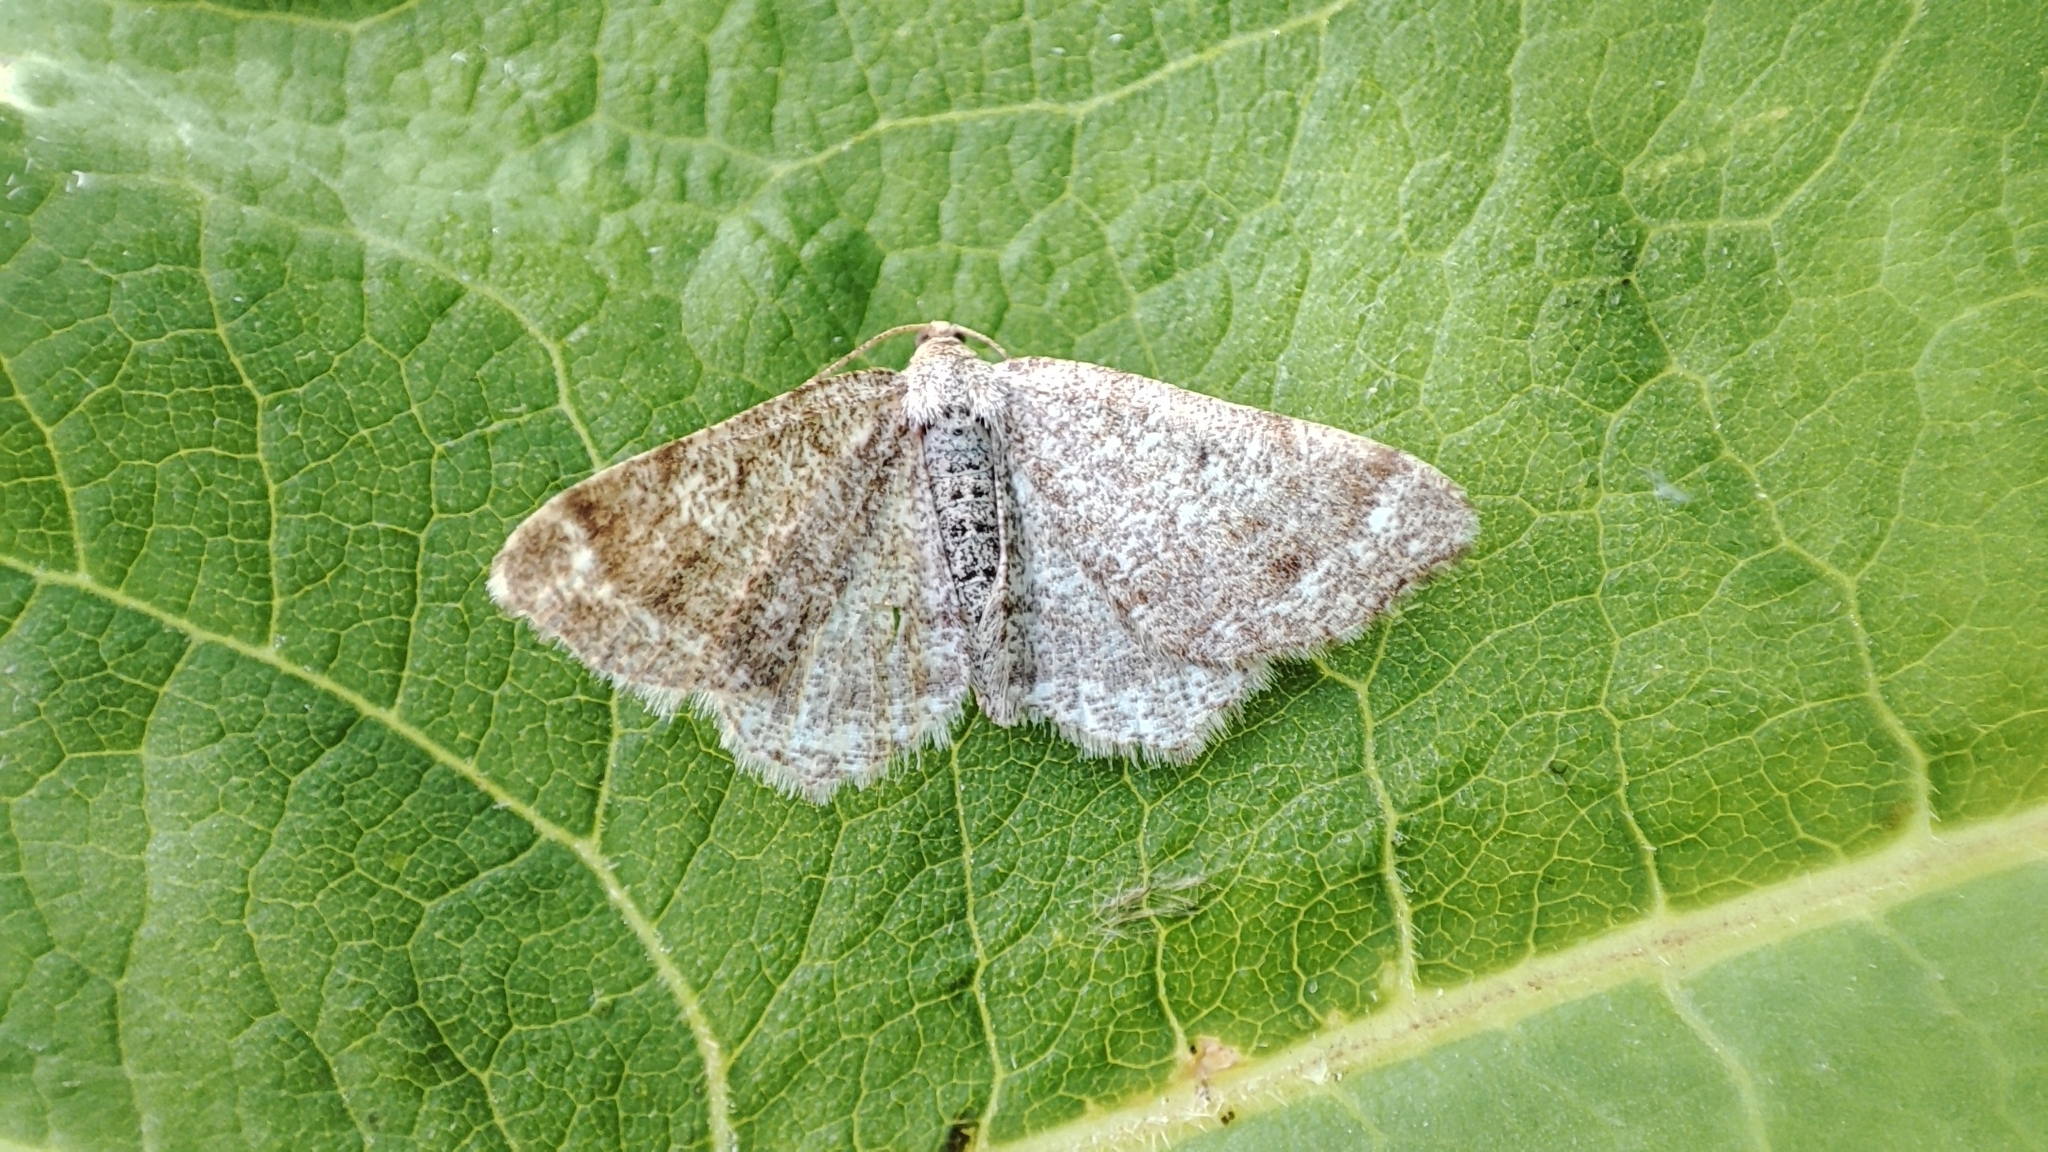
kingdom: Animalia
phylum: Arthropoda
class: Insecta
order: Lepidoptera
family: Geometridae
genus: Macaria
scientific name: Macaria continuaria
